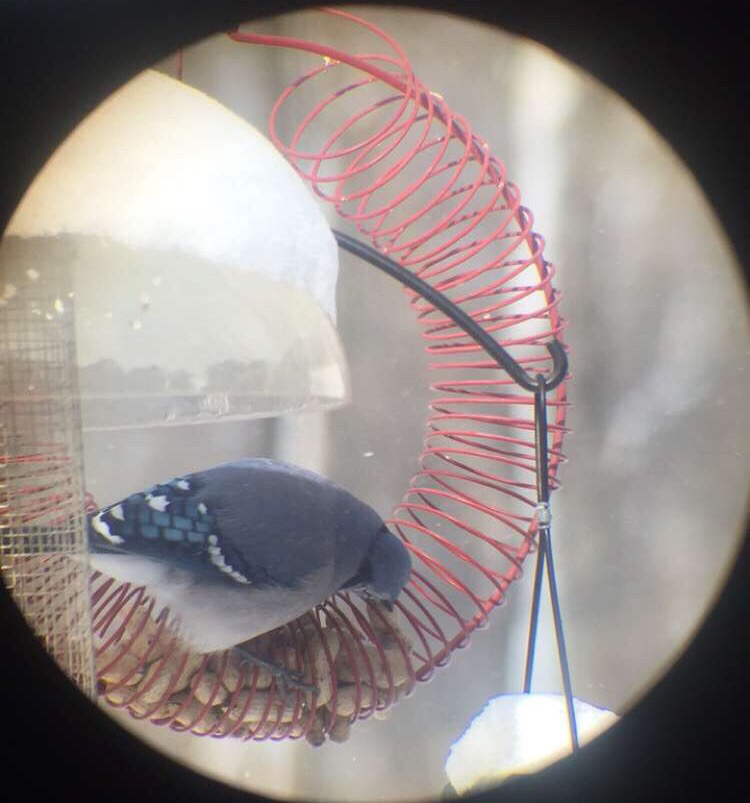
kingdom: Animalia
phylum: Chordata
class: Aves
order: Passeriformes
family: Corvidae
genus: Cyanocitta
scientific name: Cyanocitta cristata
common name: Blue jay
